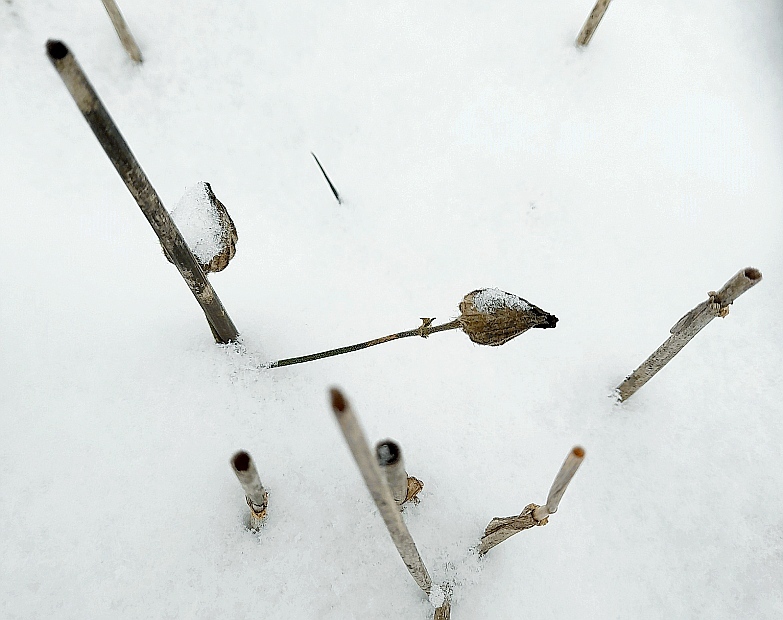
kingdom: Plantae
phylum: Tracheophyta
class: Magnoliopsida
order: Caryophyllales
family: Caryophyllaceae
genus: Silene
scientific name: Silene latifolia
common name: White campion
